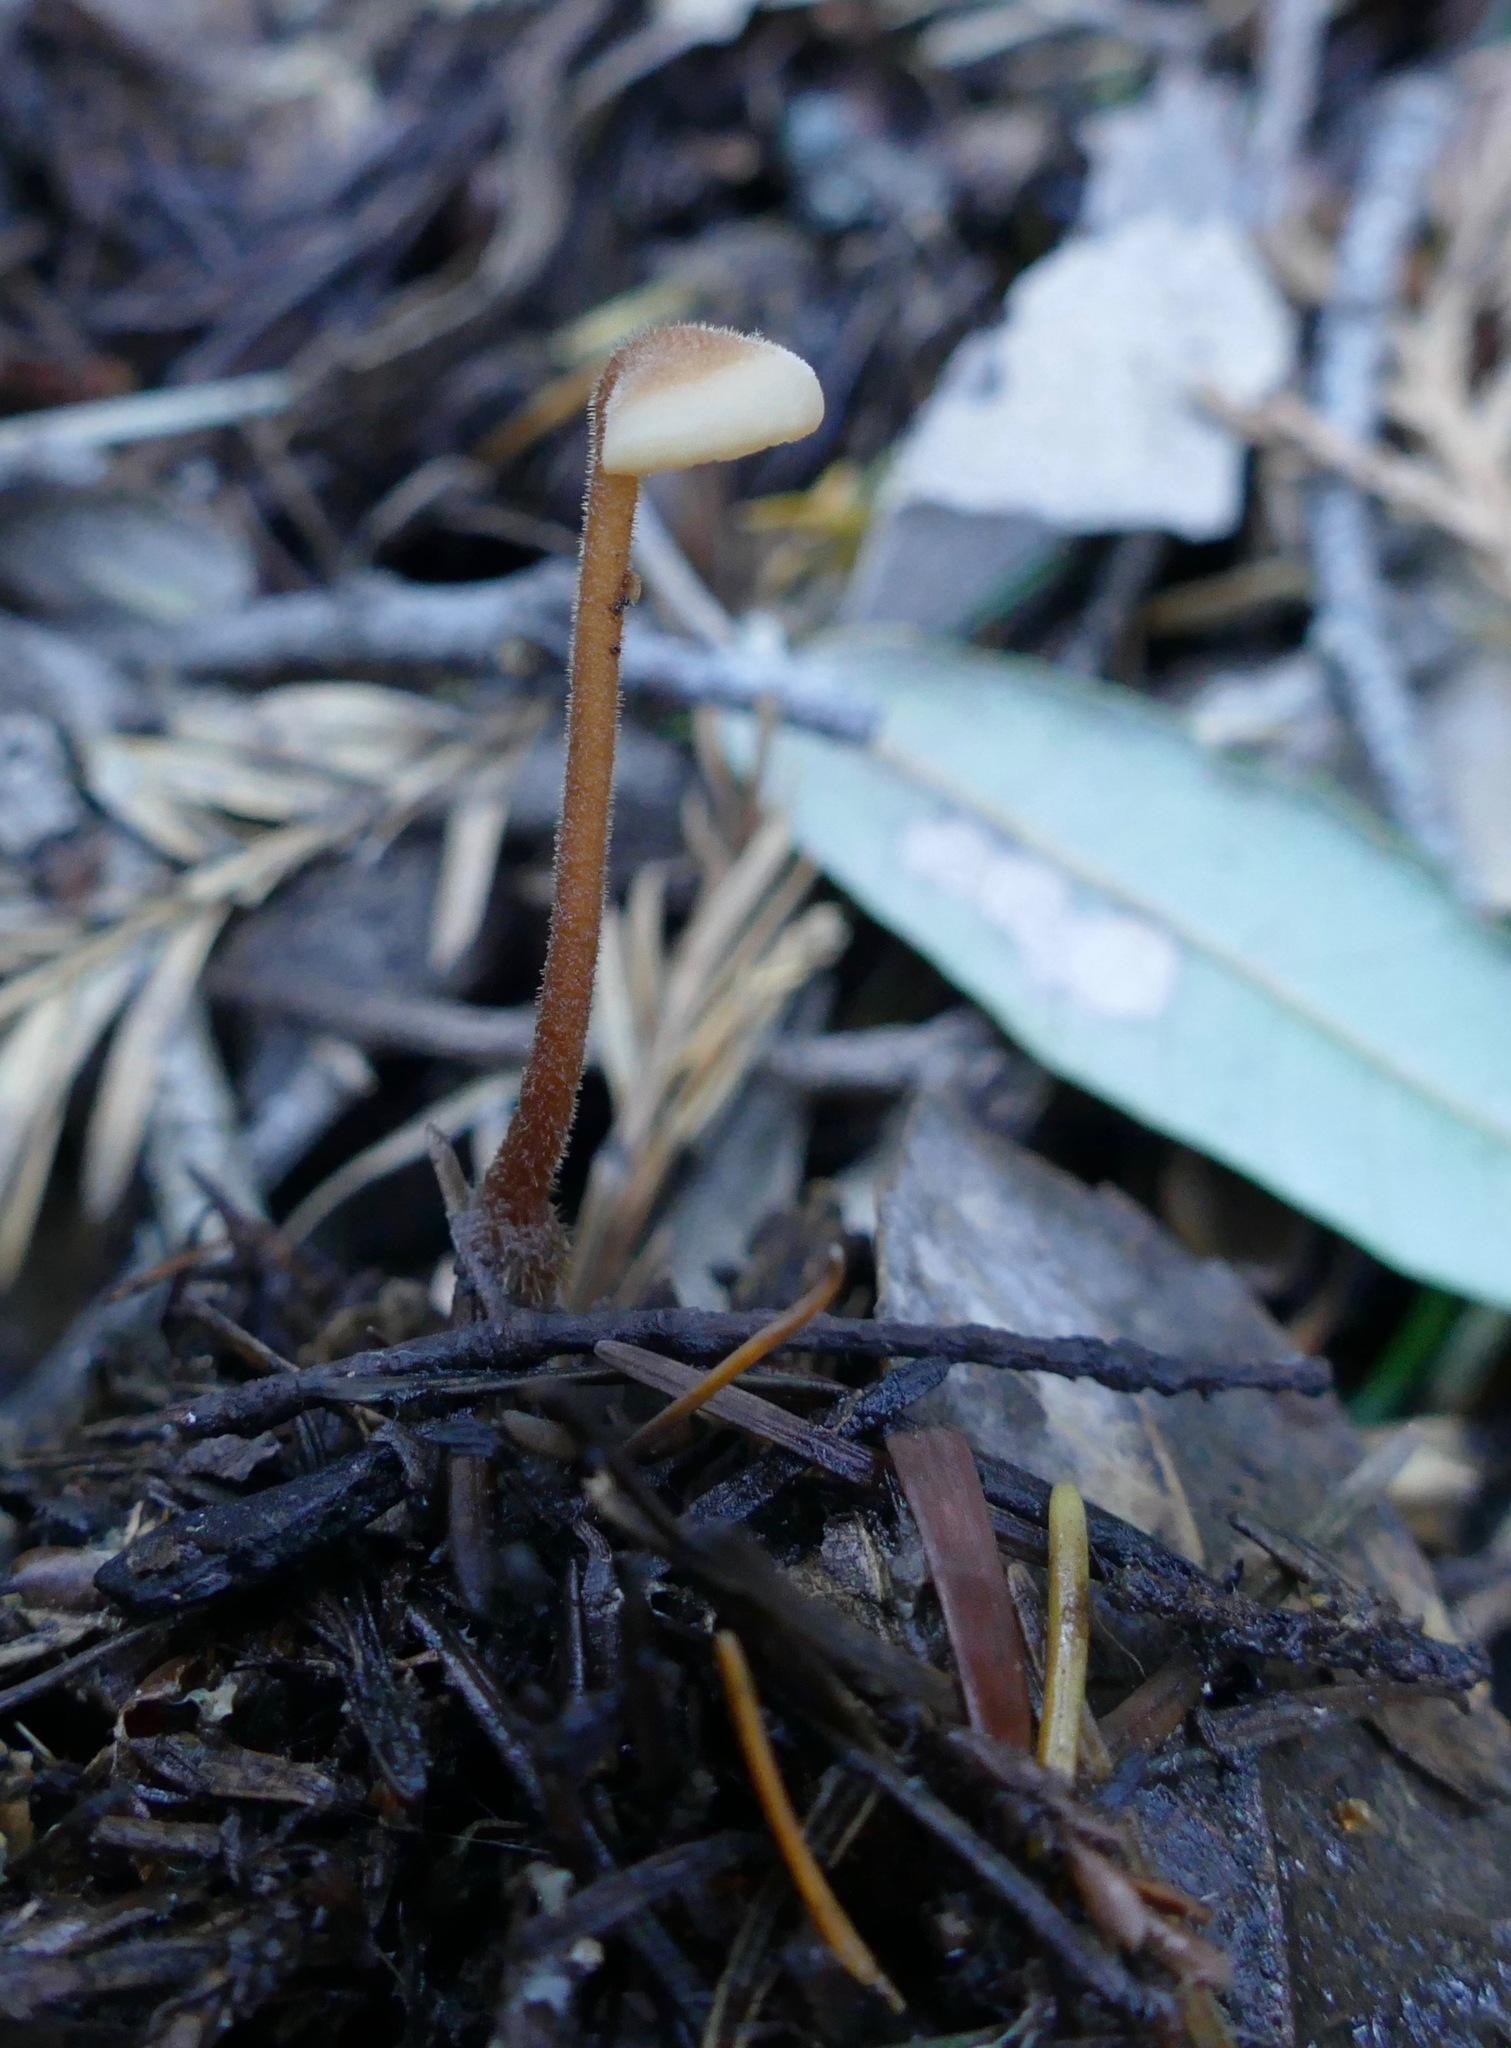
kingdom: Fungi
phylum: Basidiomycota
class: Agaricomycetes
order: Russulales
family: Auriscalpiaceae
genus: Auriscalpium
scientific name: Auriscalpium vulgare
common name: Earpick fungus
